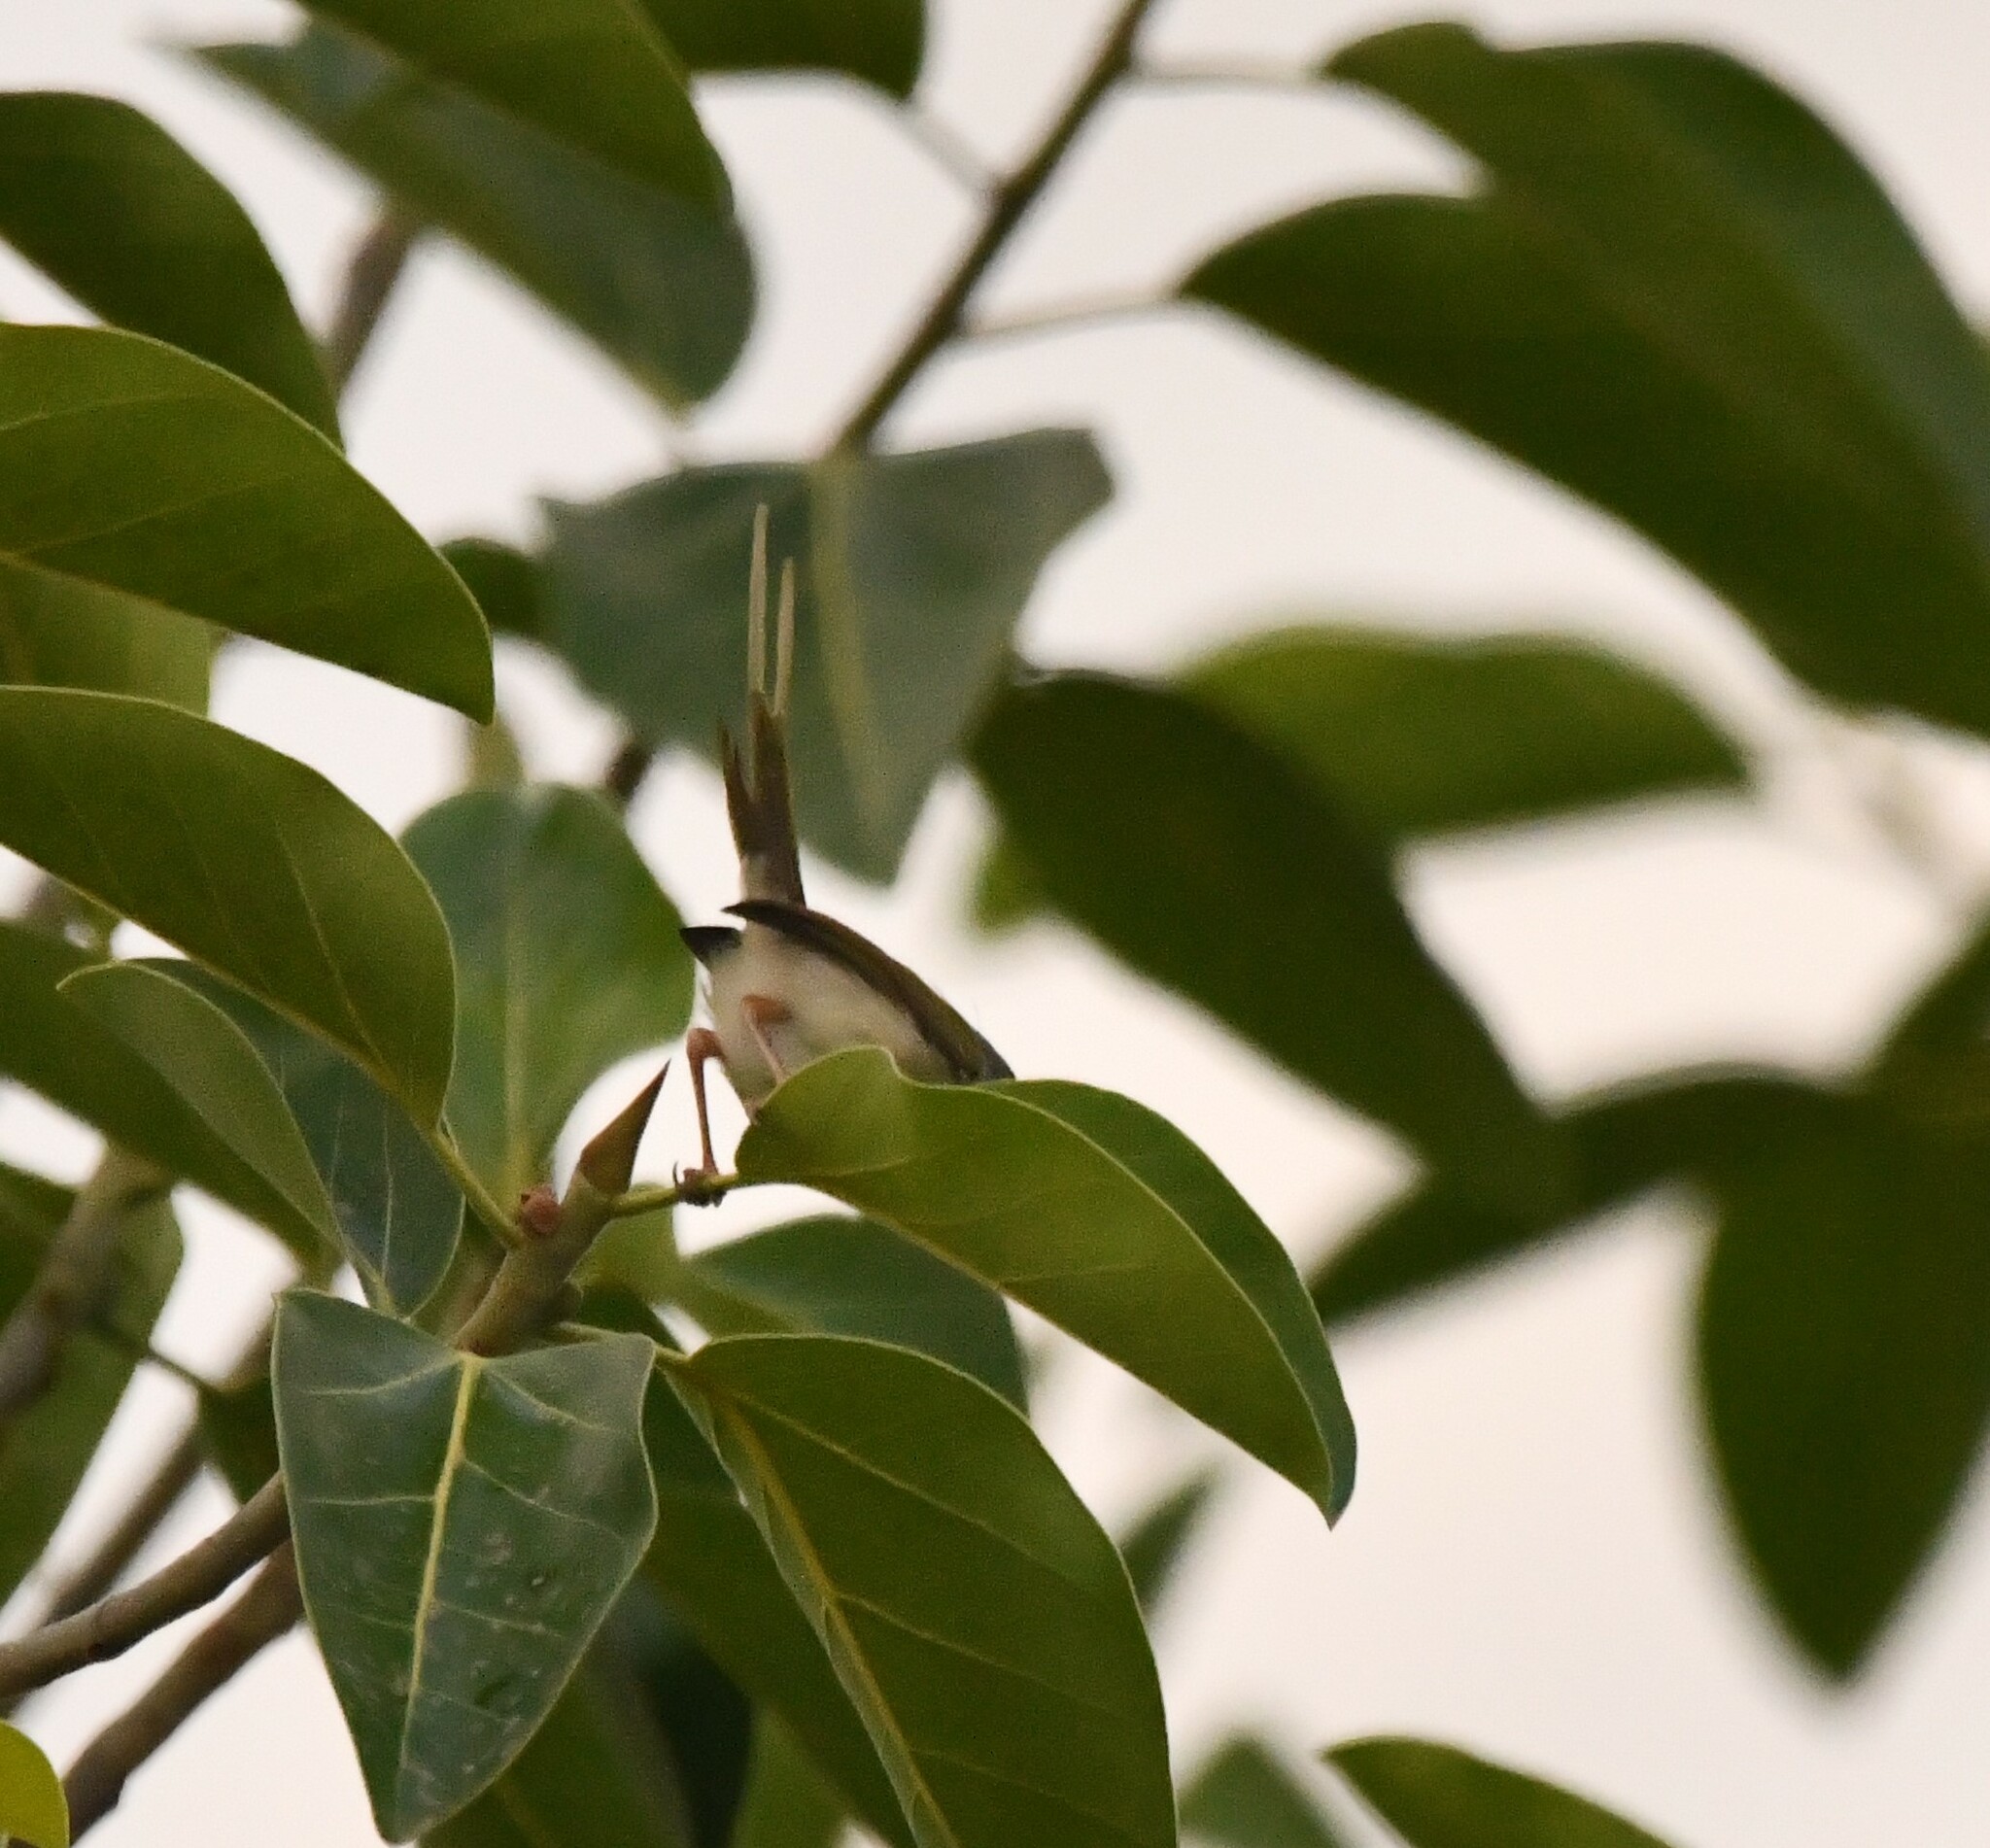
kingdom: Animalia
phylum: Chordata
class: Aves
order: Passeriformes
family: Cisticolidae
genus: Orthotomus
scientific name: Orthotomus sutorius
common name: Common tailorbird
